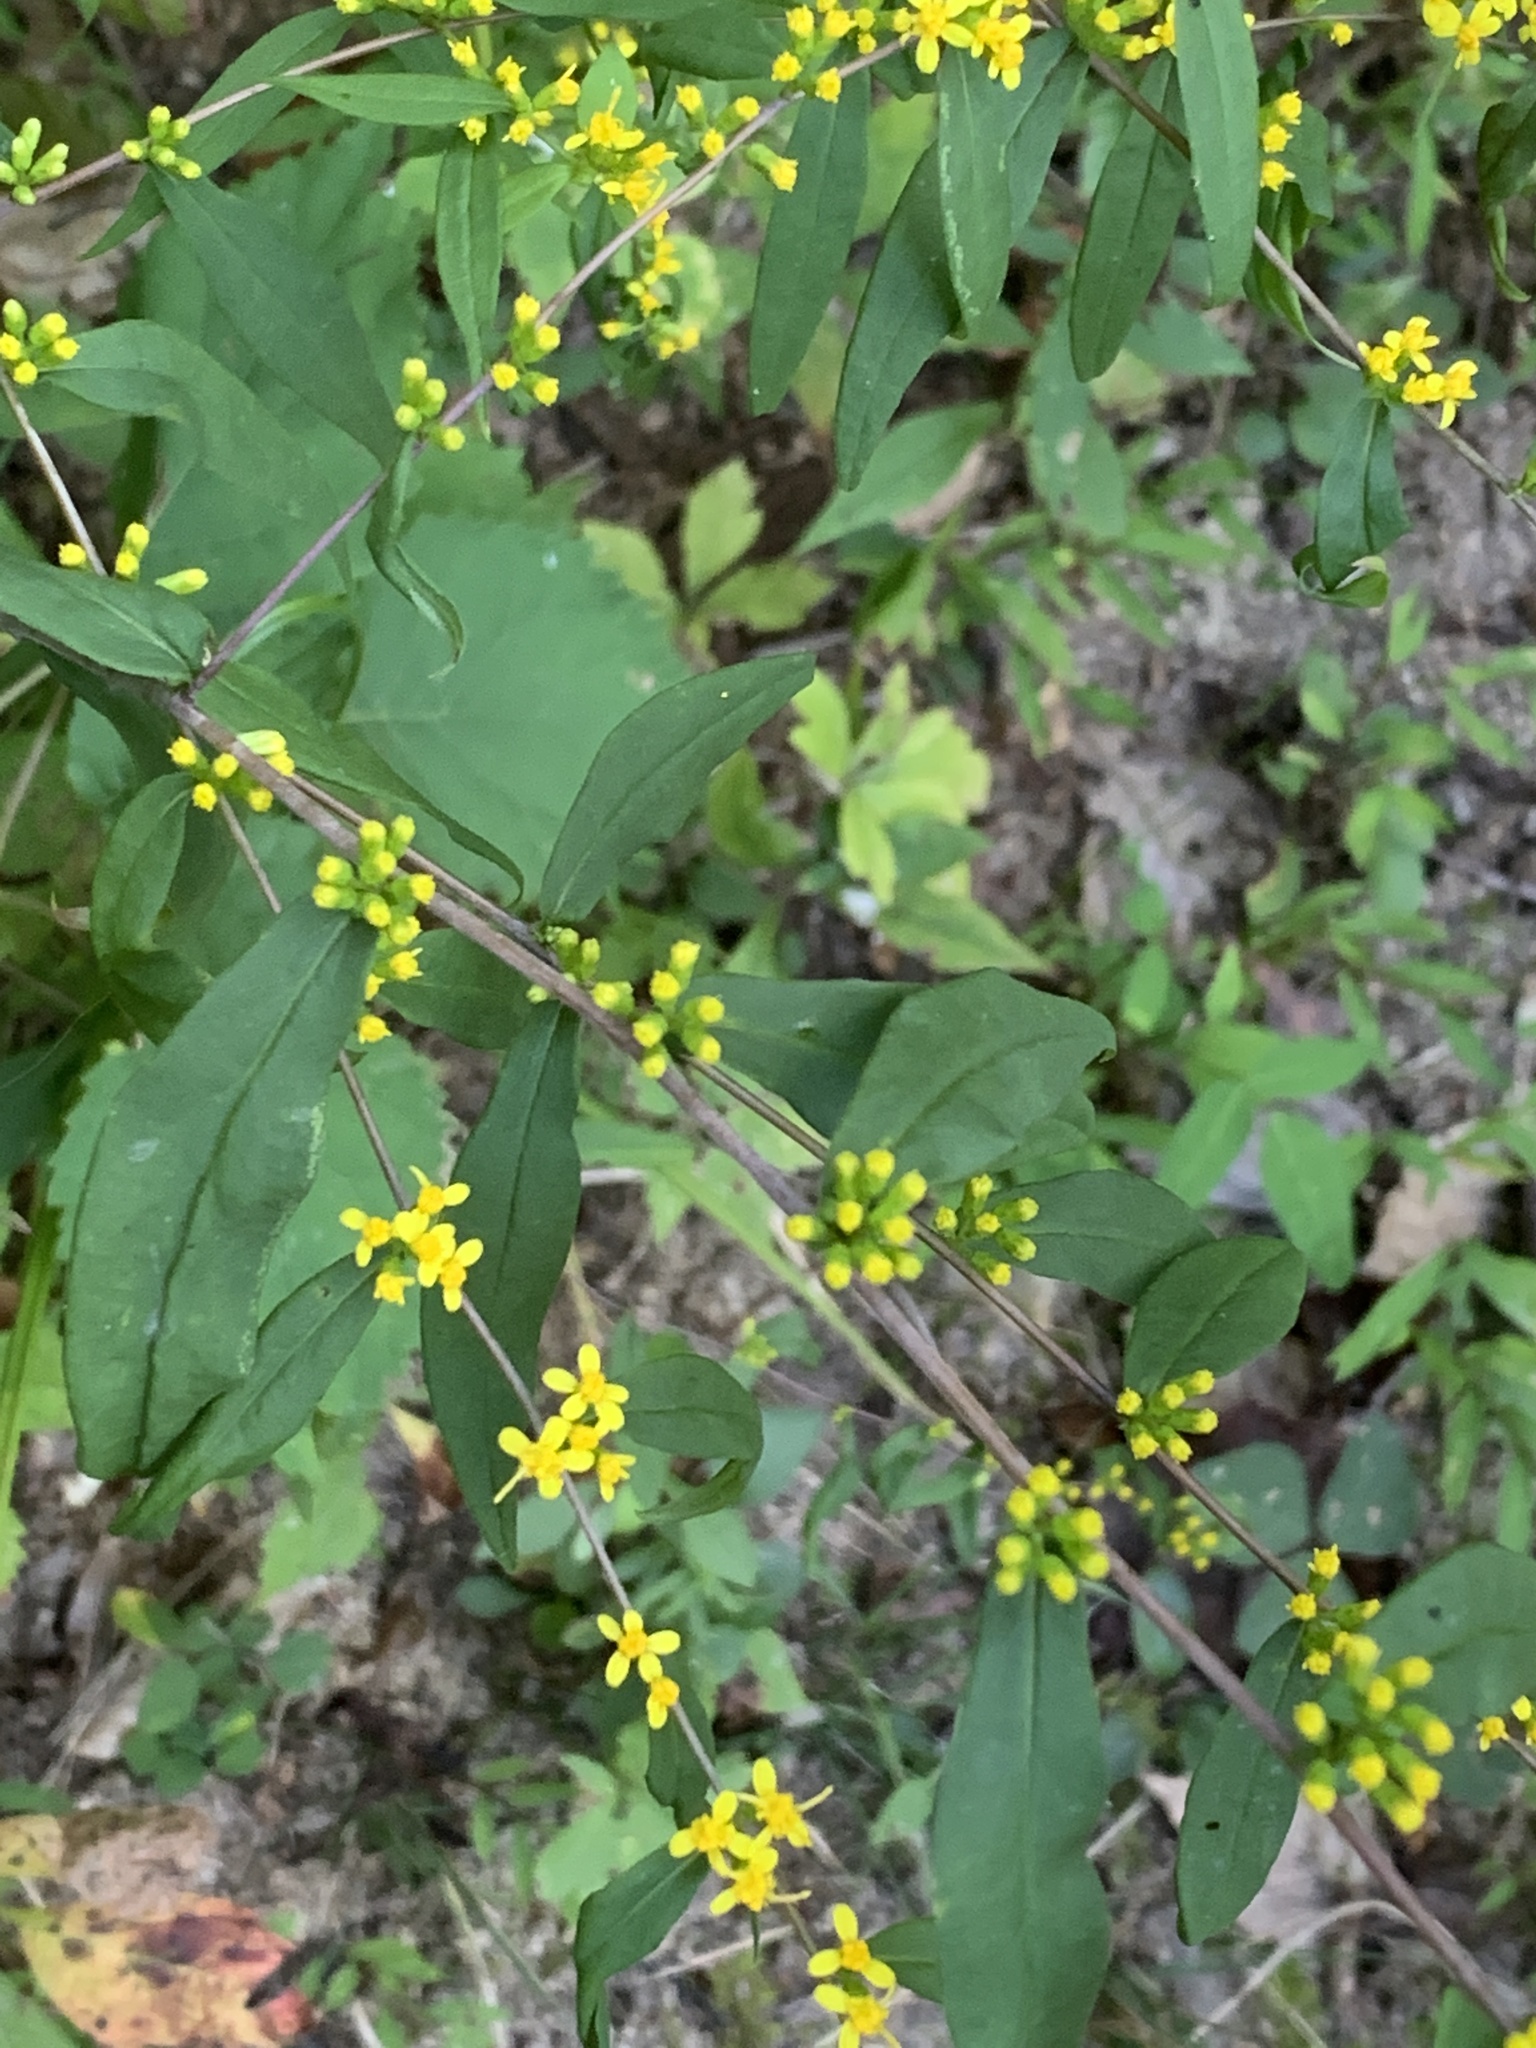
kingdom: Plantae
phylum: Tracheophyta
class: Magnoliopsida
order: Asterales
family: Asteraceae
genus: Solidago
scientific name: Solidago caesia
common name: Woodland goldenrod
